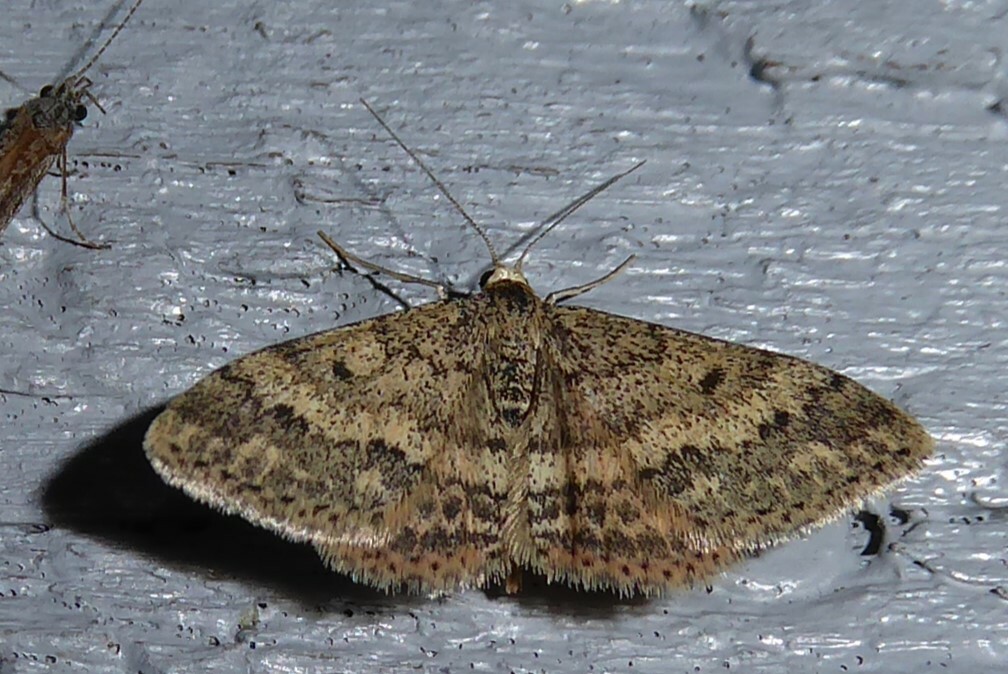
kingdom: Animalia
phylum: Arthropoda
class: Insecta
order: Lepidoptera
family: Geometridae
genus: Scopula
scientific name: Scopula rubraria
